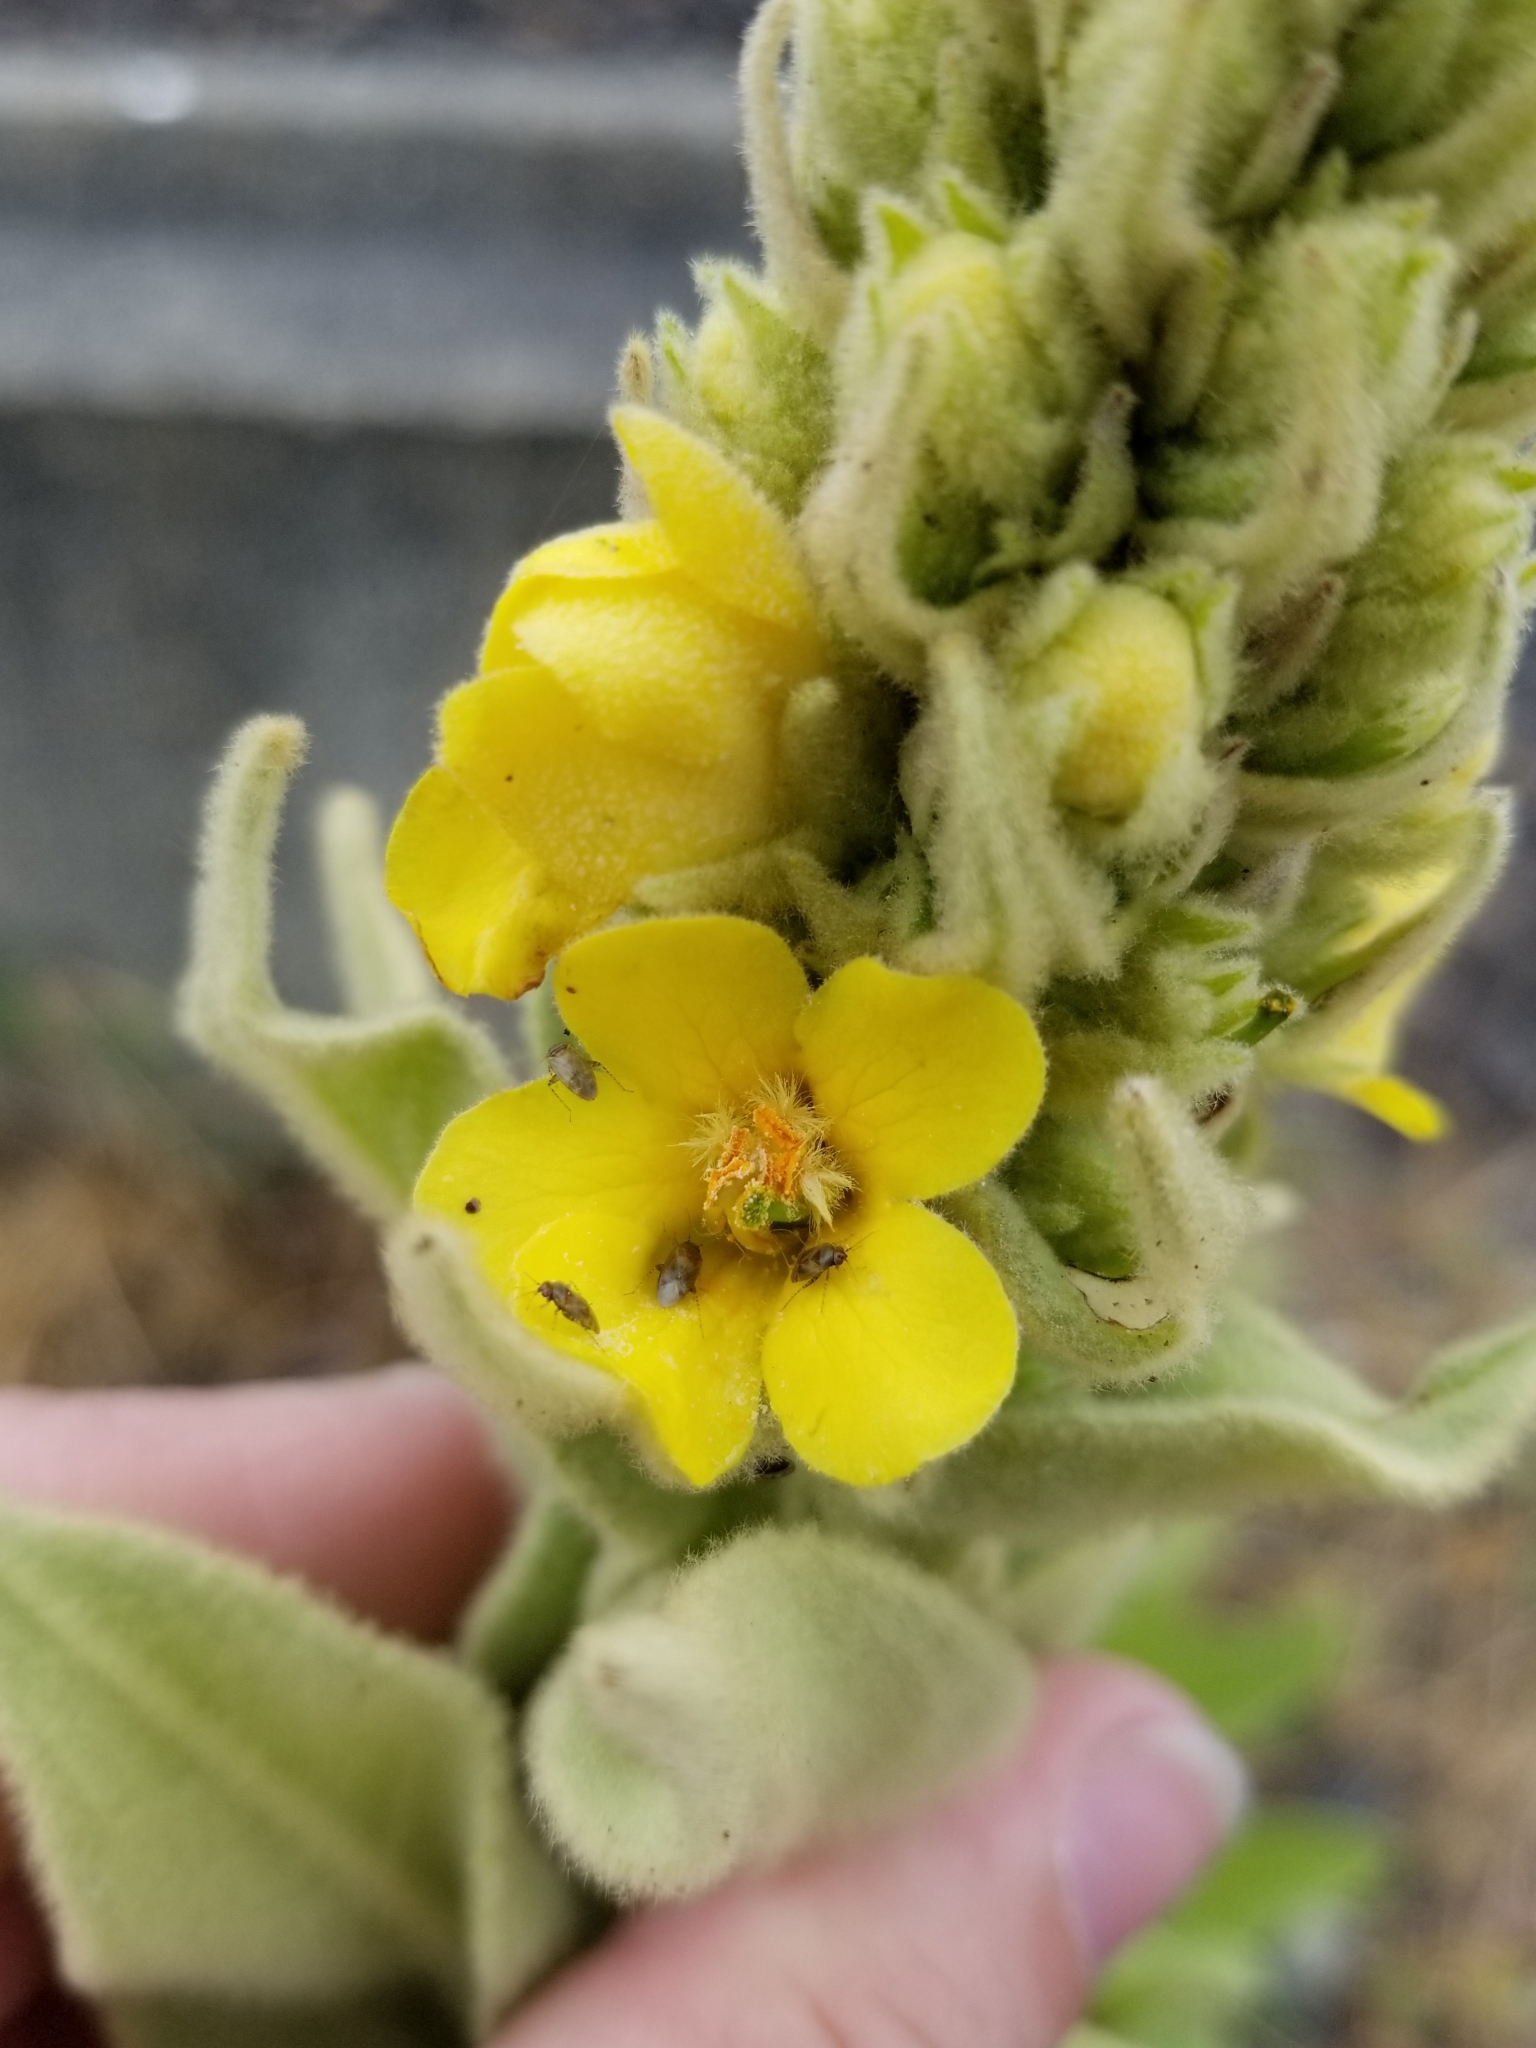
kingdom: Plantae
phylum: Tracheophyta
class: Magnoliopsida
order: Lamiales
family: Scrophulariaceae
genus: Verbascum
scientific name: Verbascum thapsus
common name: Common mullein
